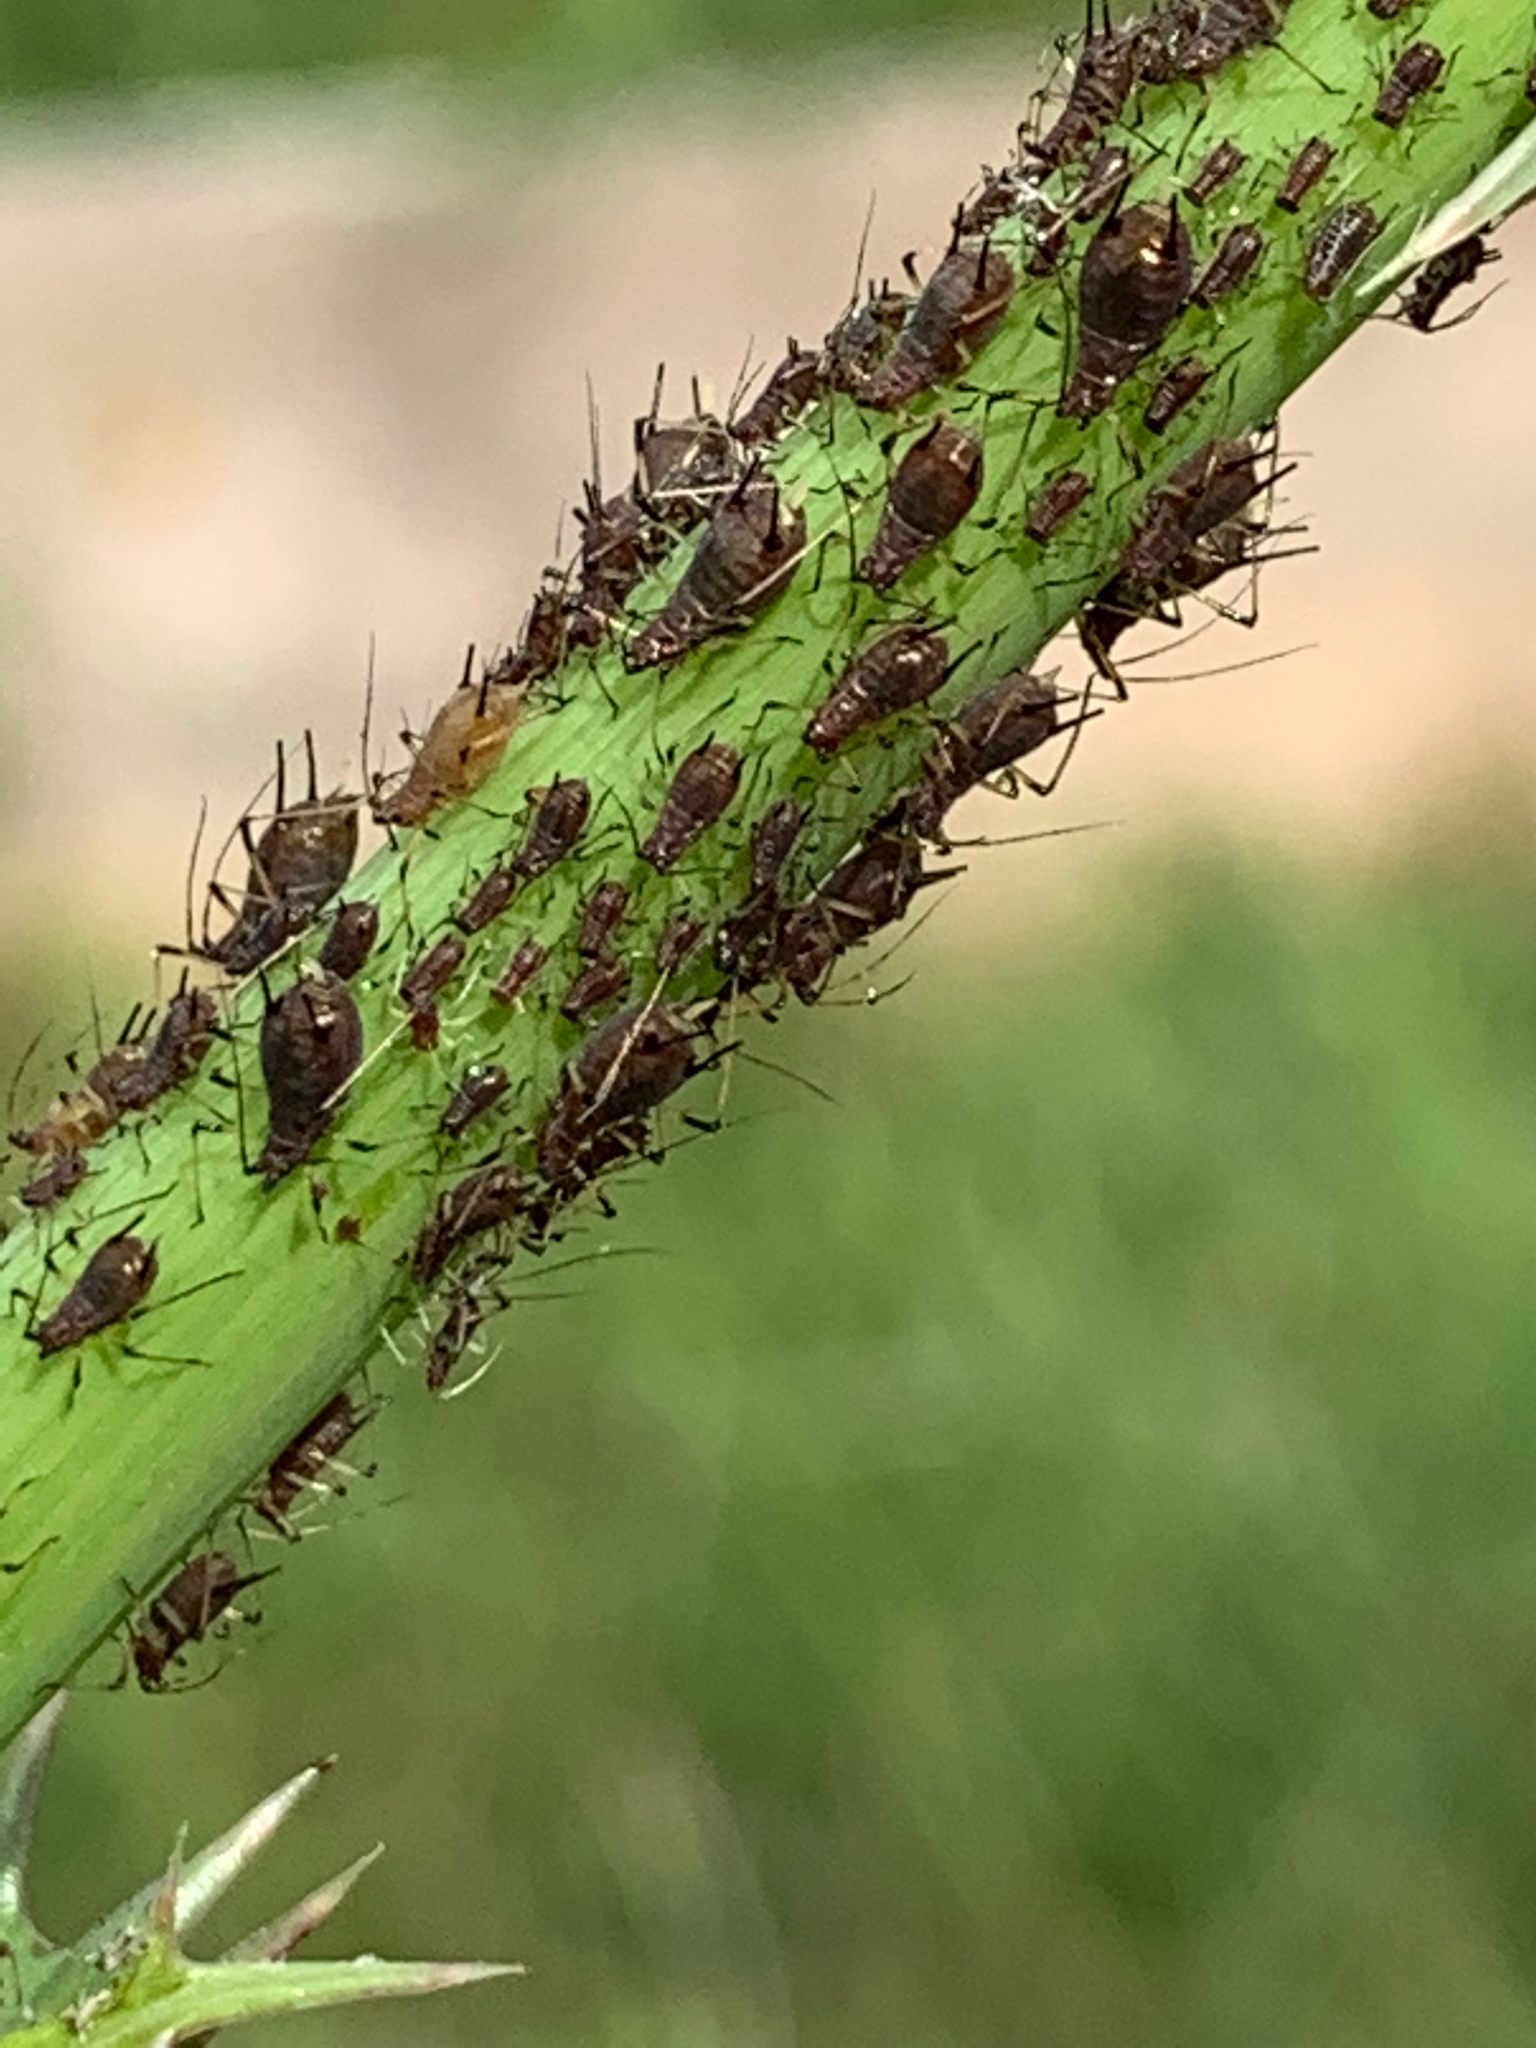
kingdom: Animalia
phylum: Arthropoda
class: Insecta
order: Hemiptera
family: Aphididae
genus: Uroleucon
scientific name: Uroleucon
